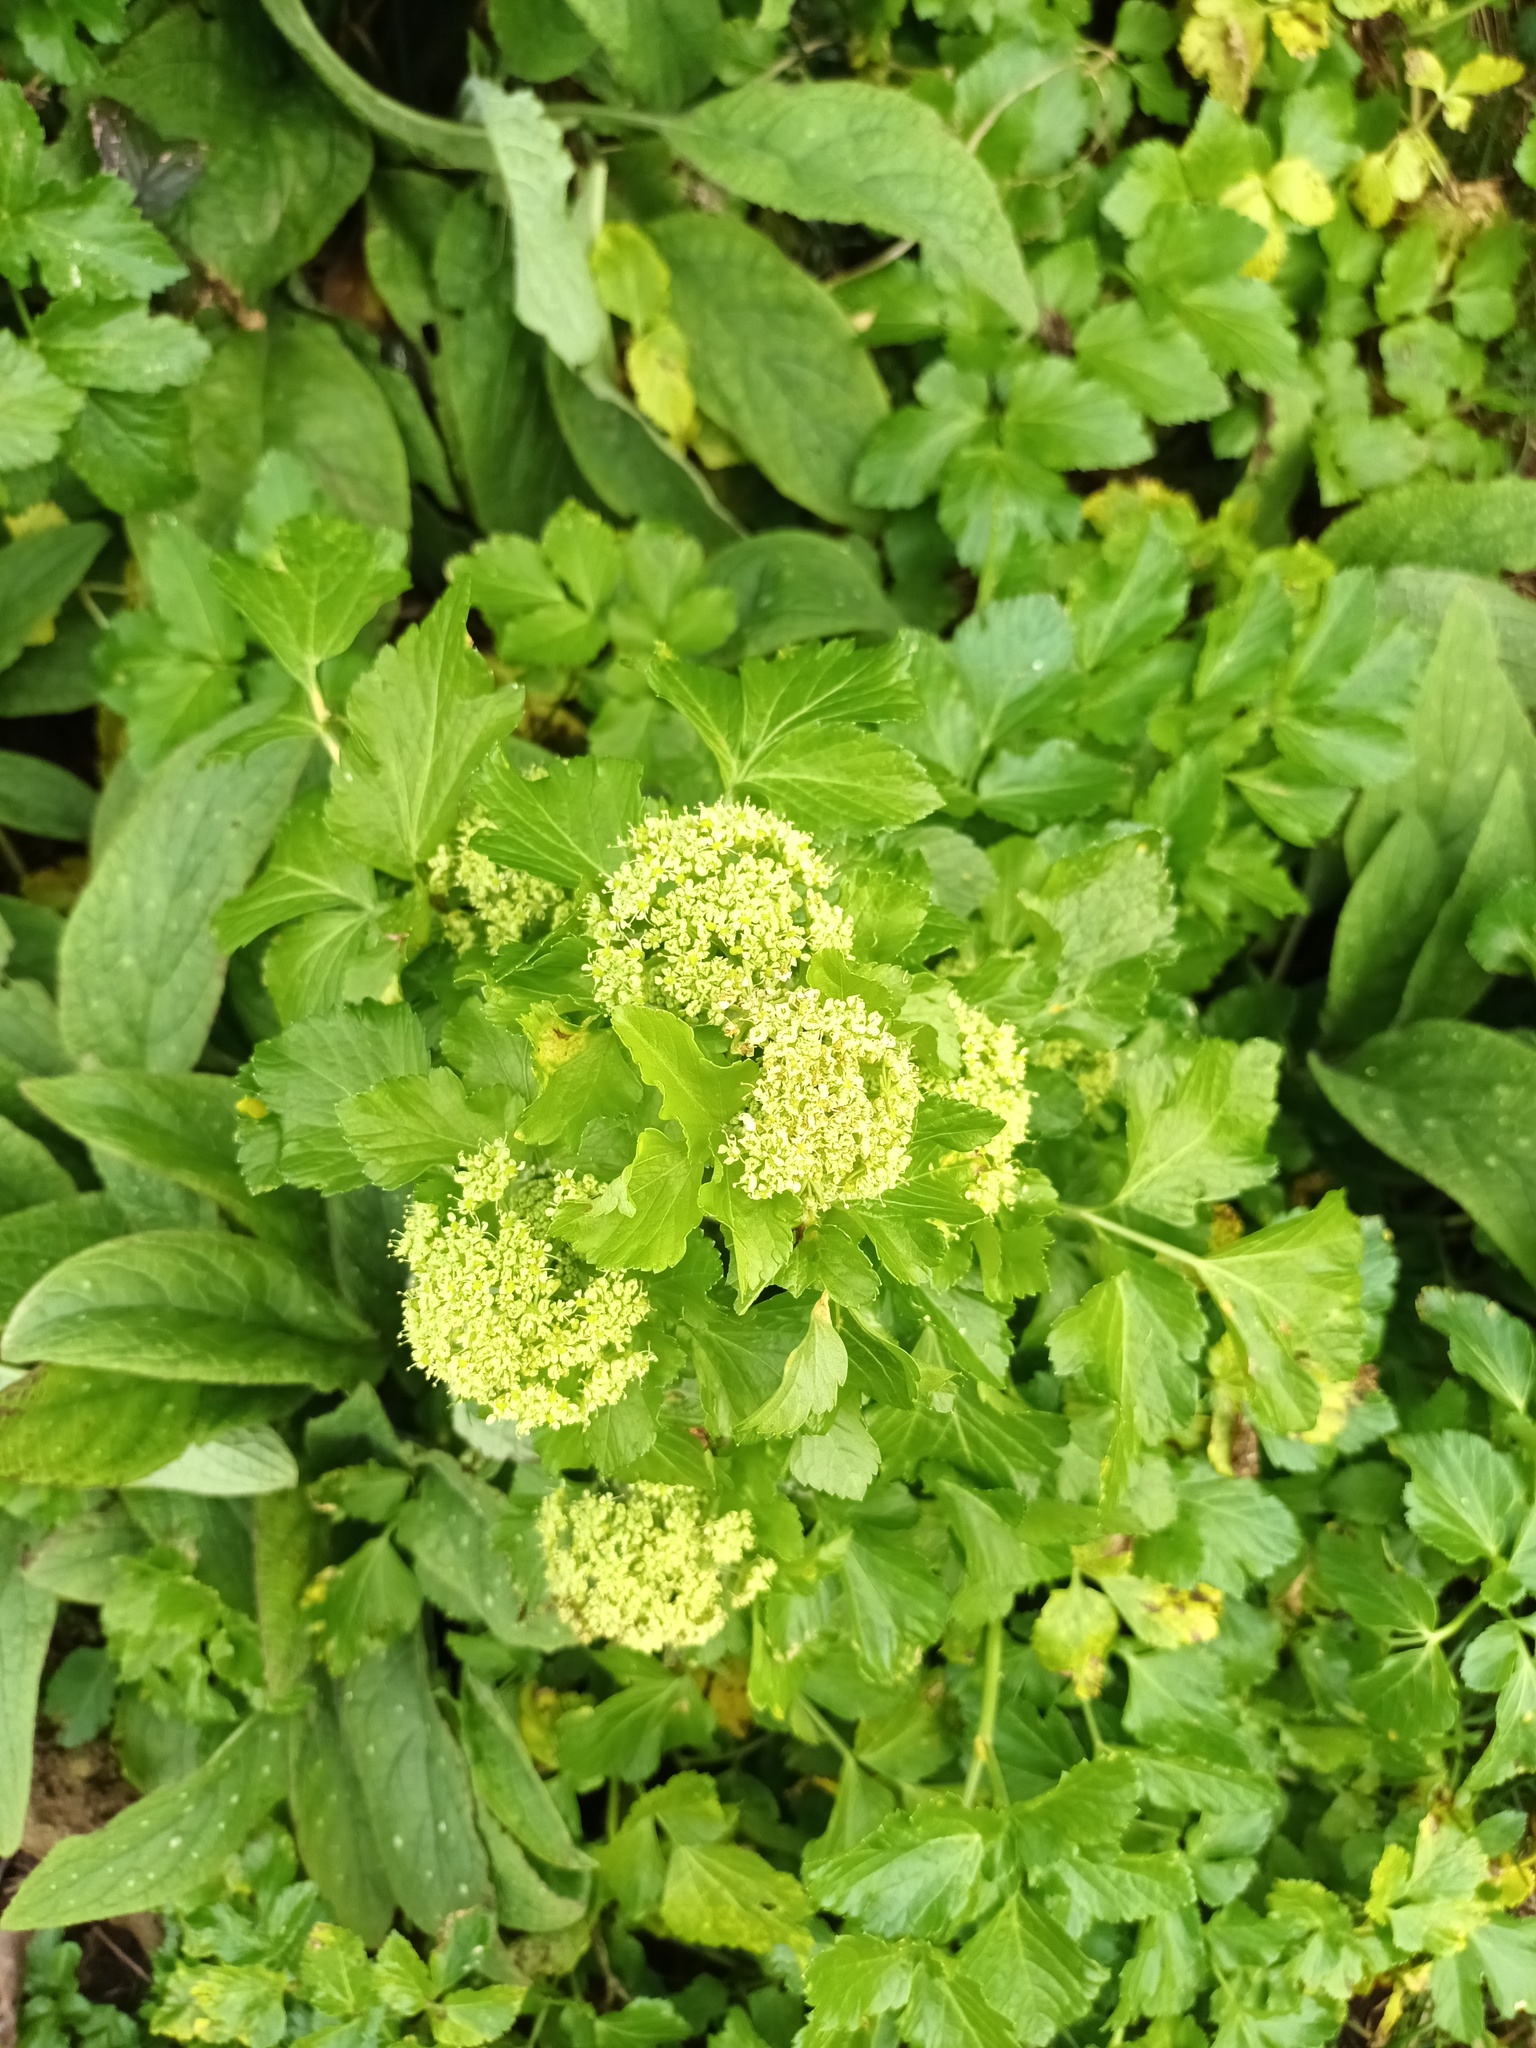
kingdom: Plantae
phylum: Tracheophyta
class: Magnoliopsida
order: Apiales
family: Apiaceae
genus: Smyrnium
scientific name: Smyrnium olusatrum
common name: Alexanders
